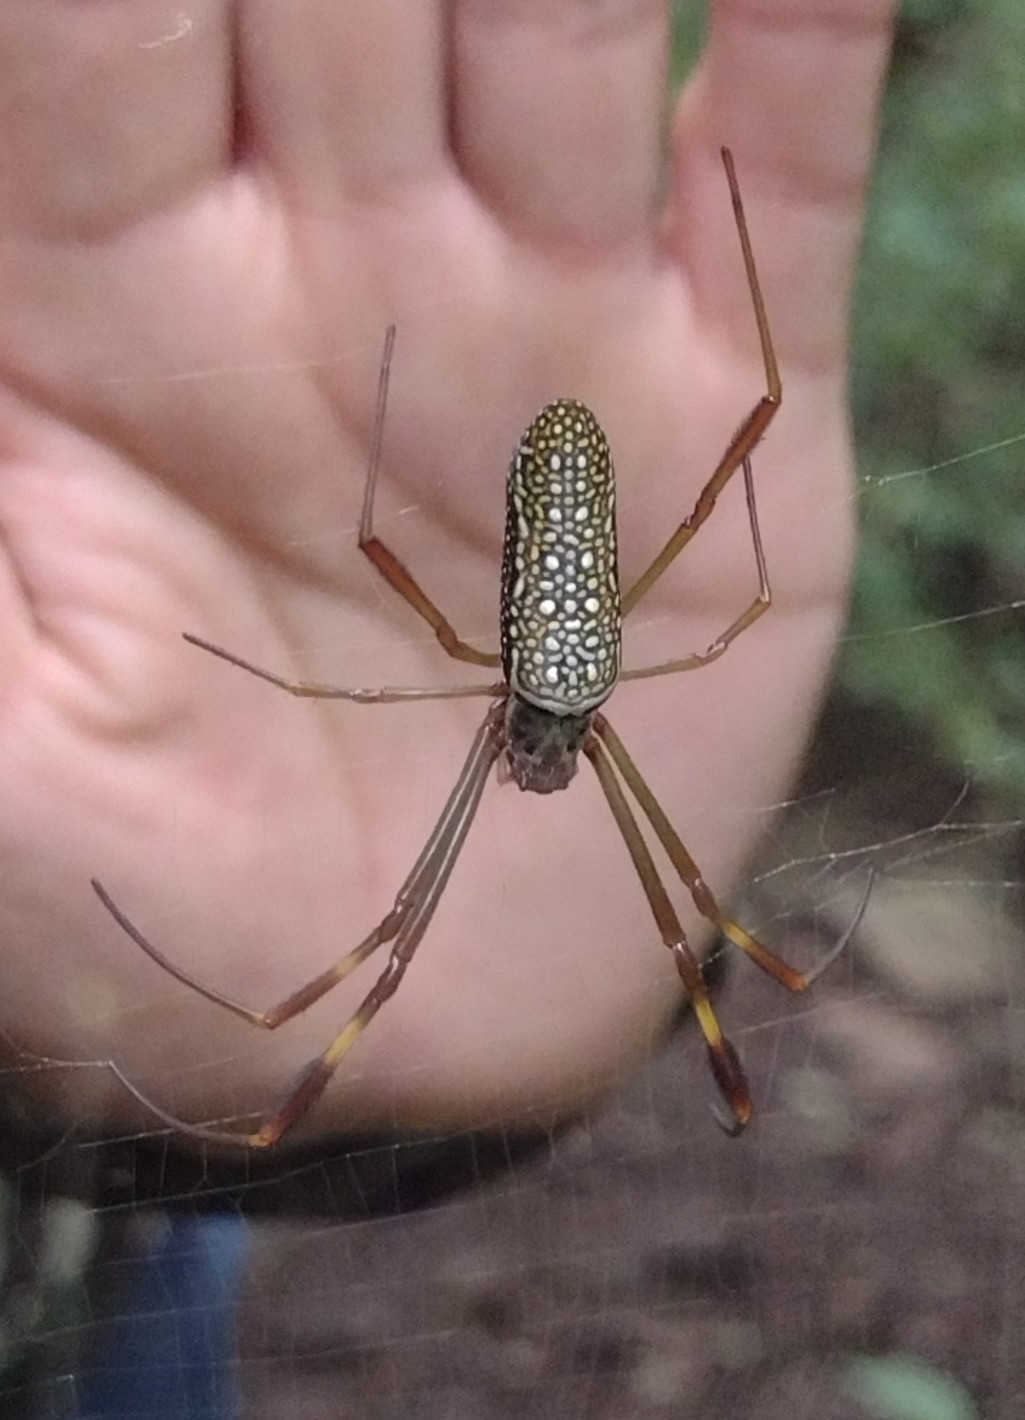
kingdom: Animalia
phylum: Arthropoda
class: Arachnida
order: Araneae
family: Araneidae
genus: Trichonephila
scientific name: Trichonephila clavipes
